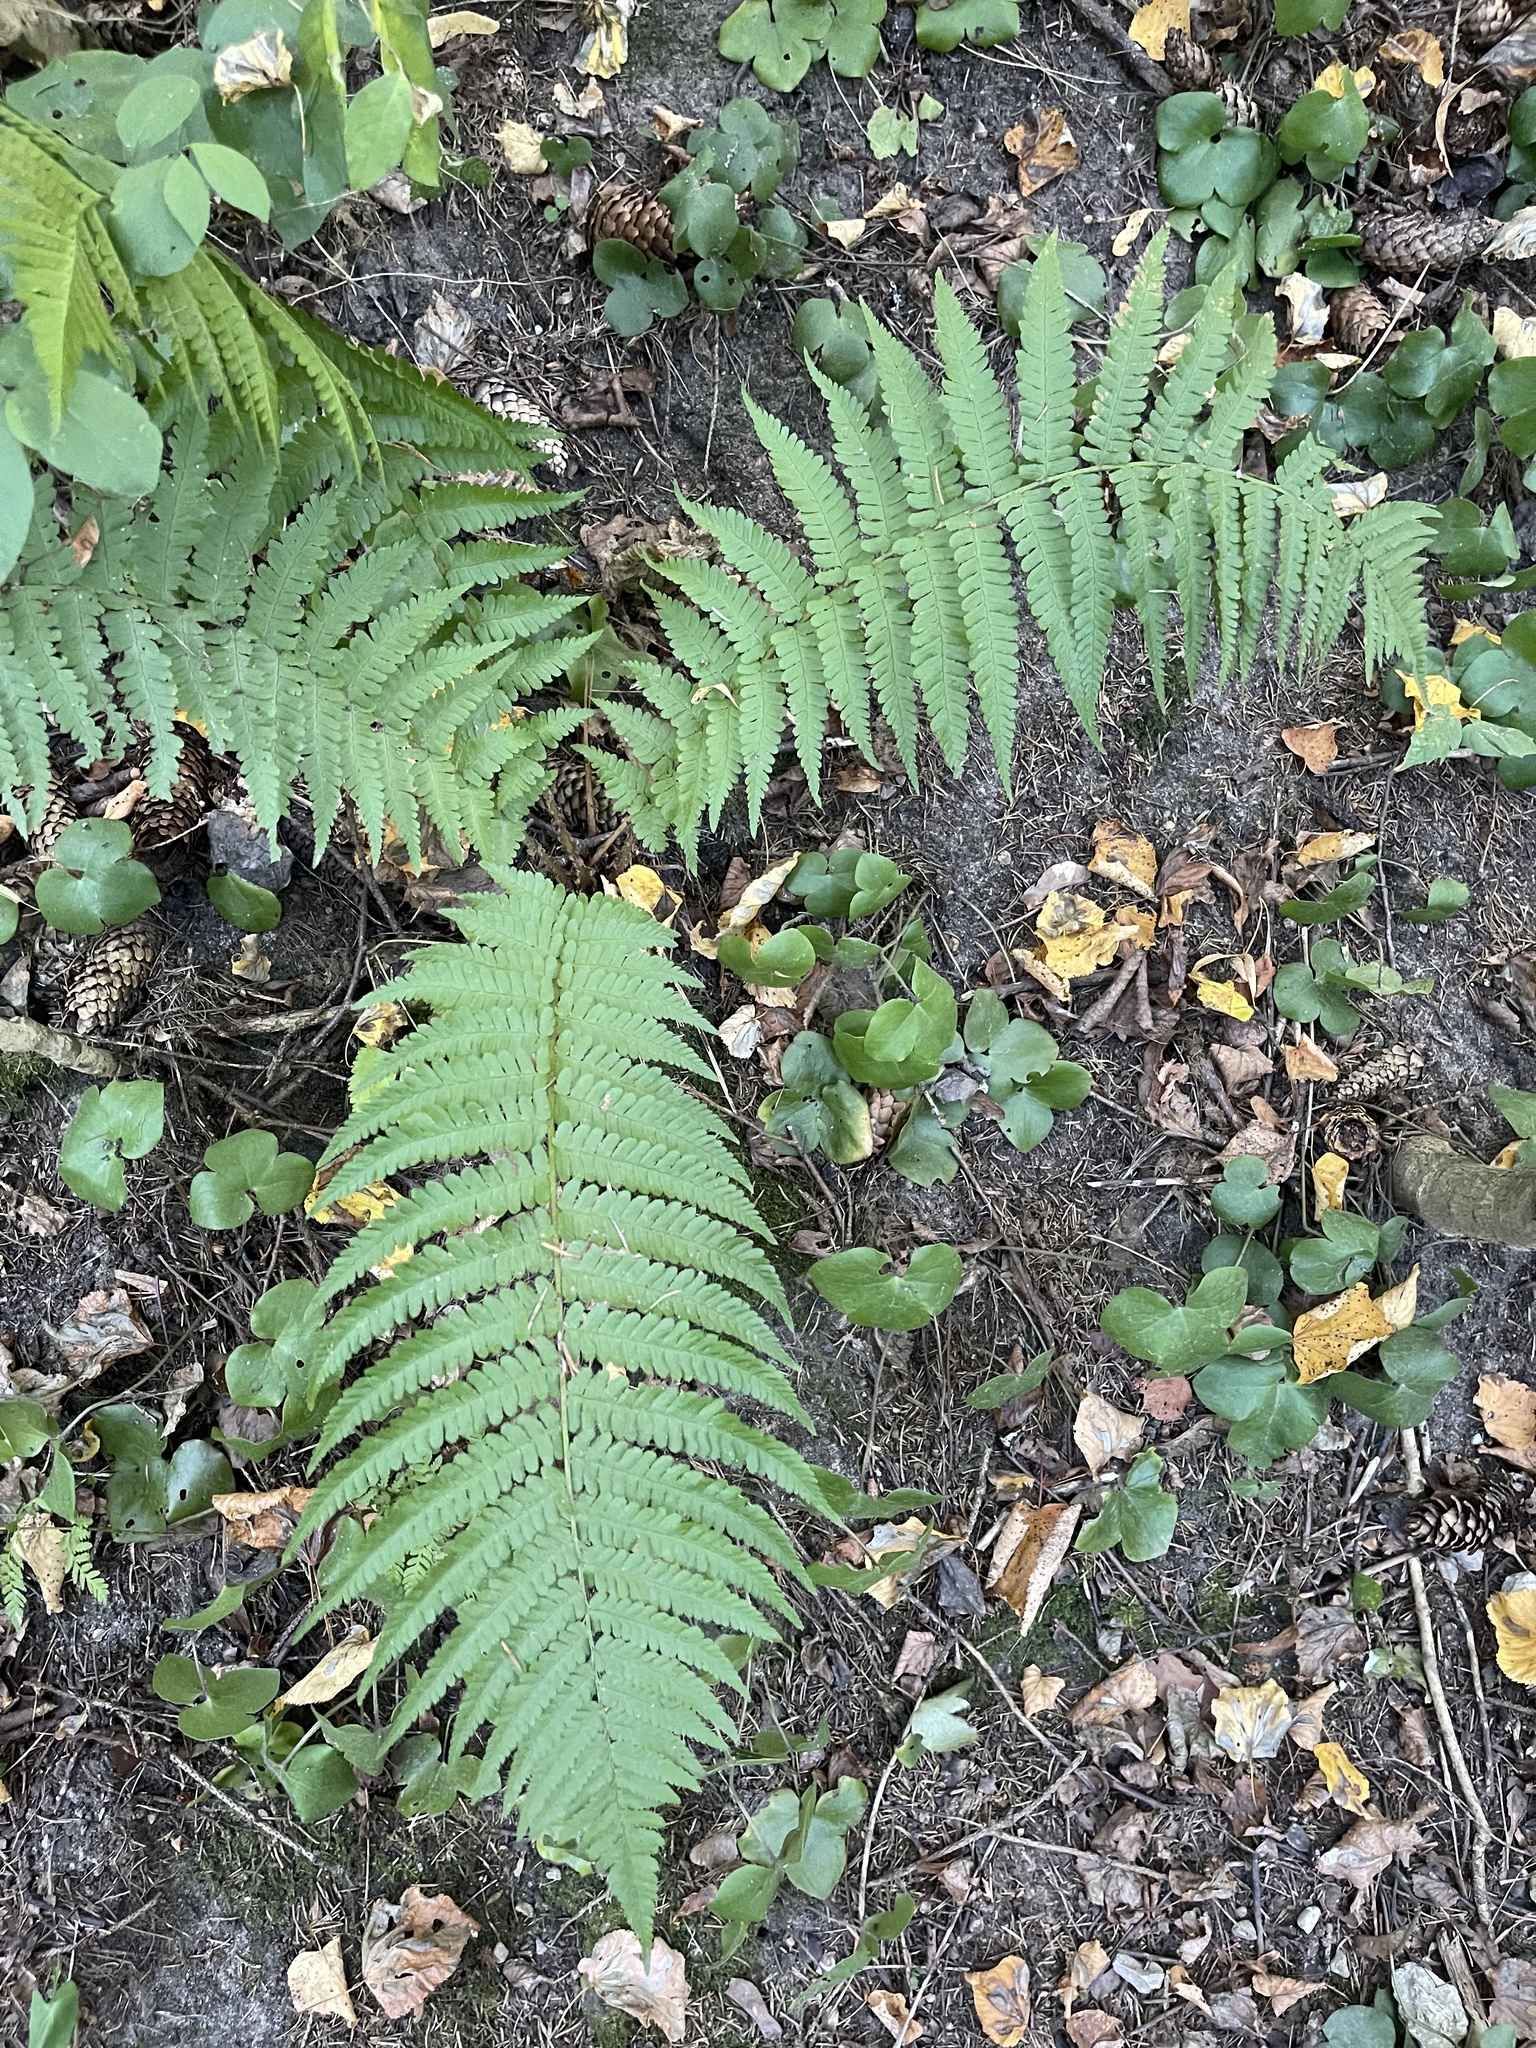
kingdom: Plantae
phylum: Tracheophyta
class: Polypodiopsida
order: Polypodiales
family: Dryopteridaceae
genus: Dryopteris
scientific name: Dryopteris filix-mas
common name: Male fern
